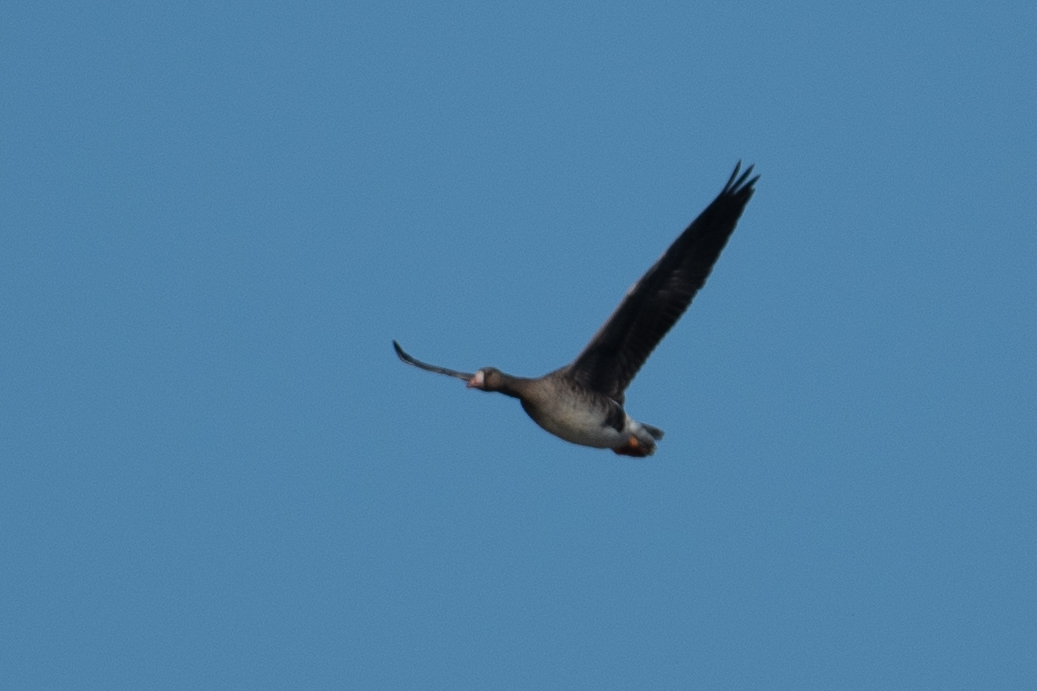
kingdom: Animalia
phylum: Chordata
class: Aves
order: Anseriformes
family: Anatidae
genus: Anser
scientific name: Anser albifrons
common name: Greater white-fronted goose
